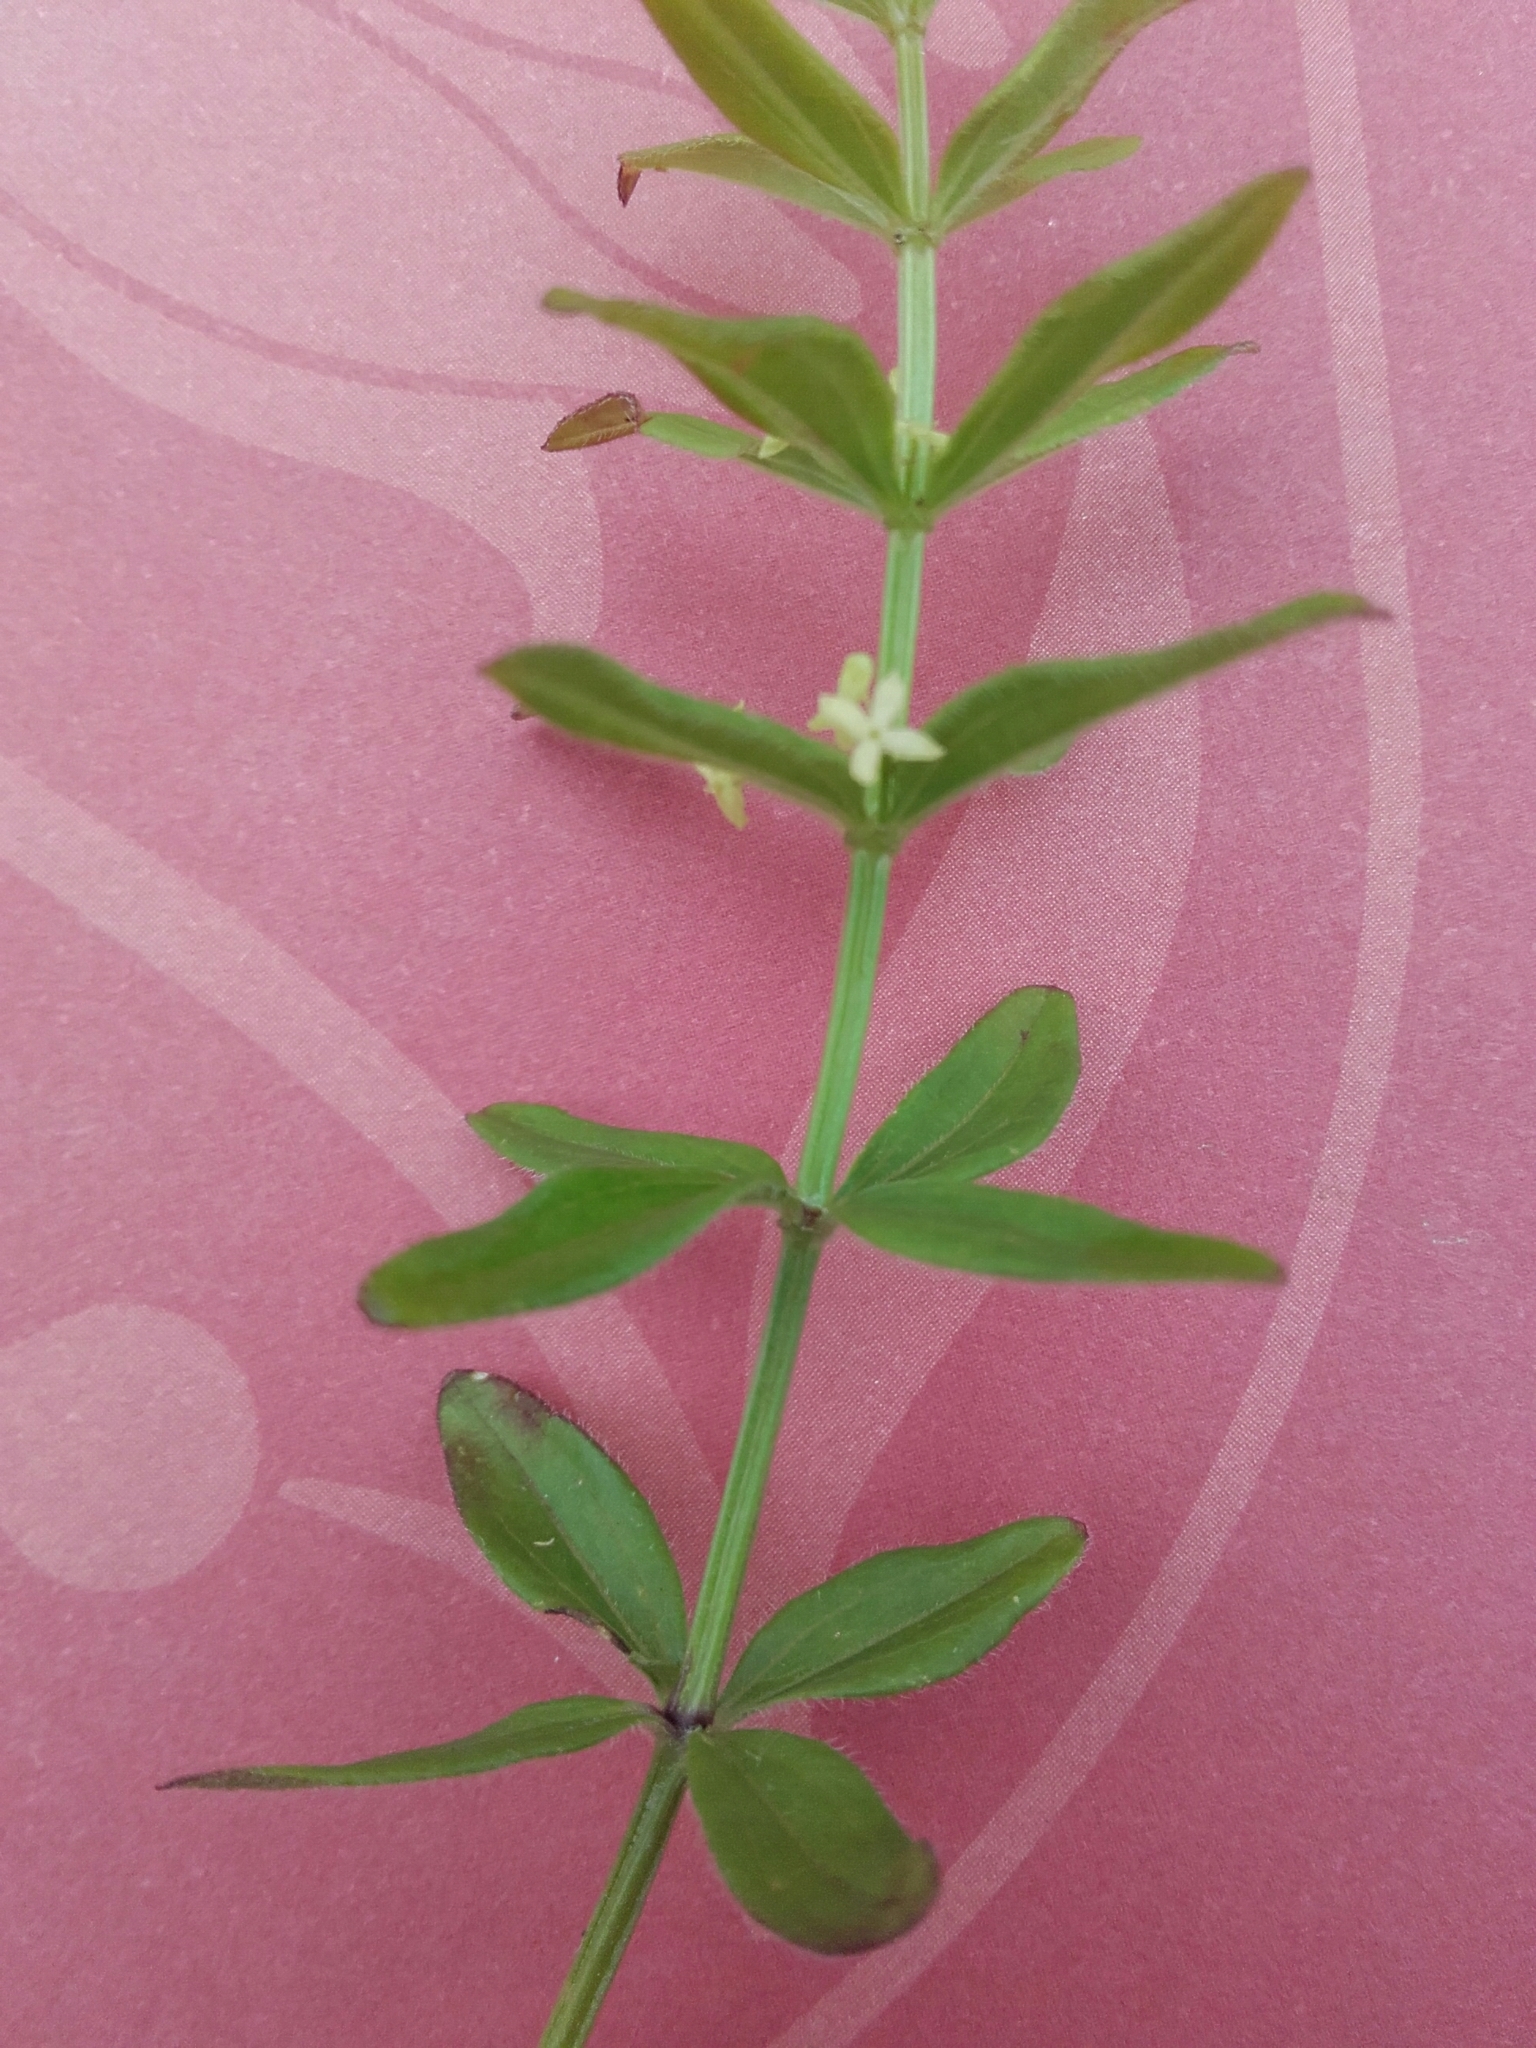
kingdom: Plantae
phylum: Tracheophyta
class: Magnoliopsida
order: Gentianales
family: Rubiaceae
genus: Cruciata
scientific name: Cruciata glabra
